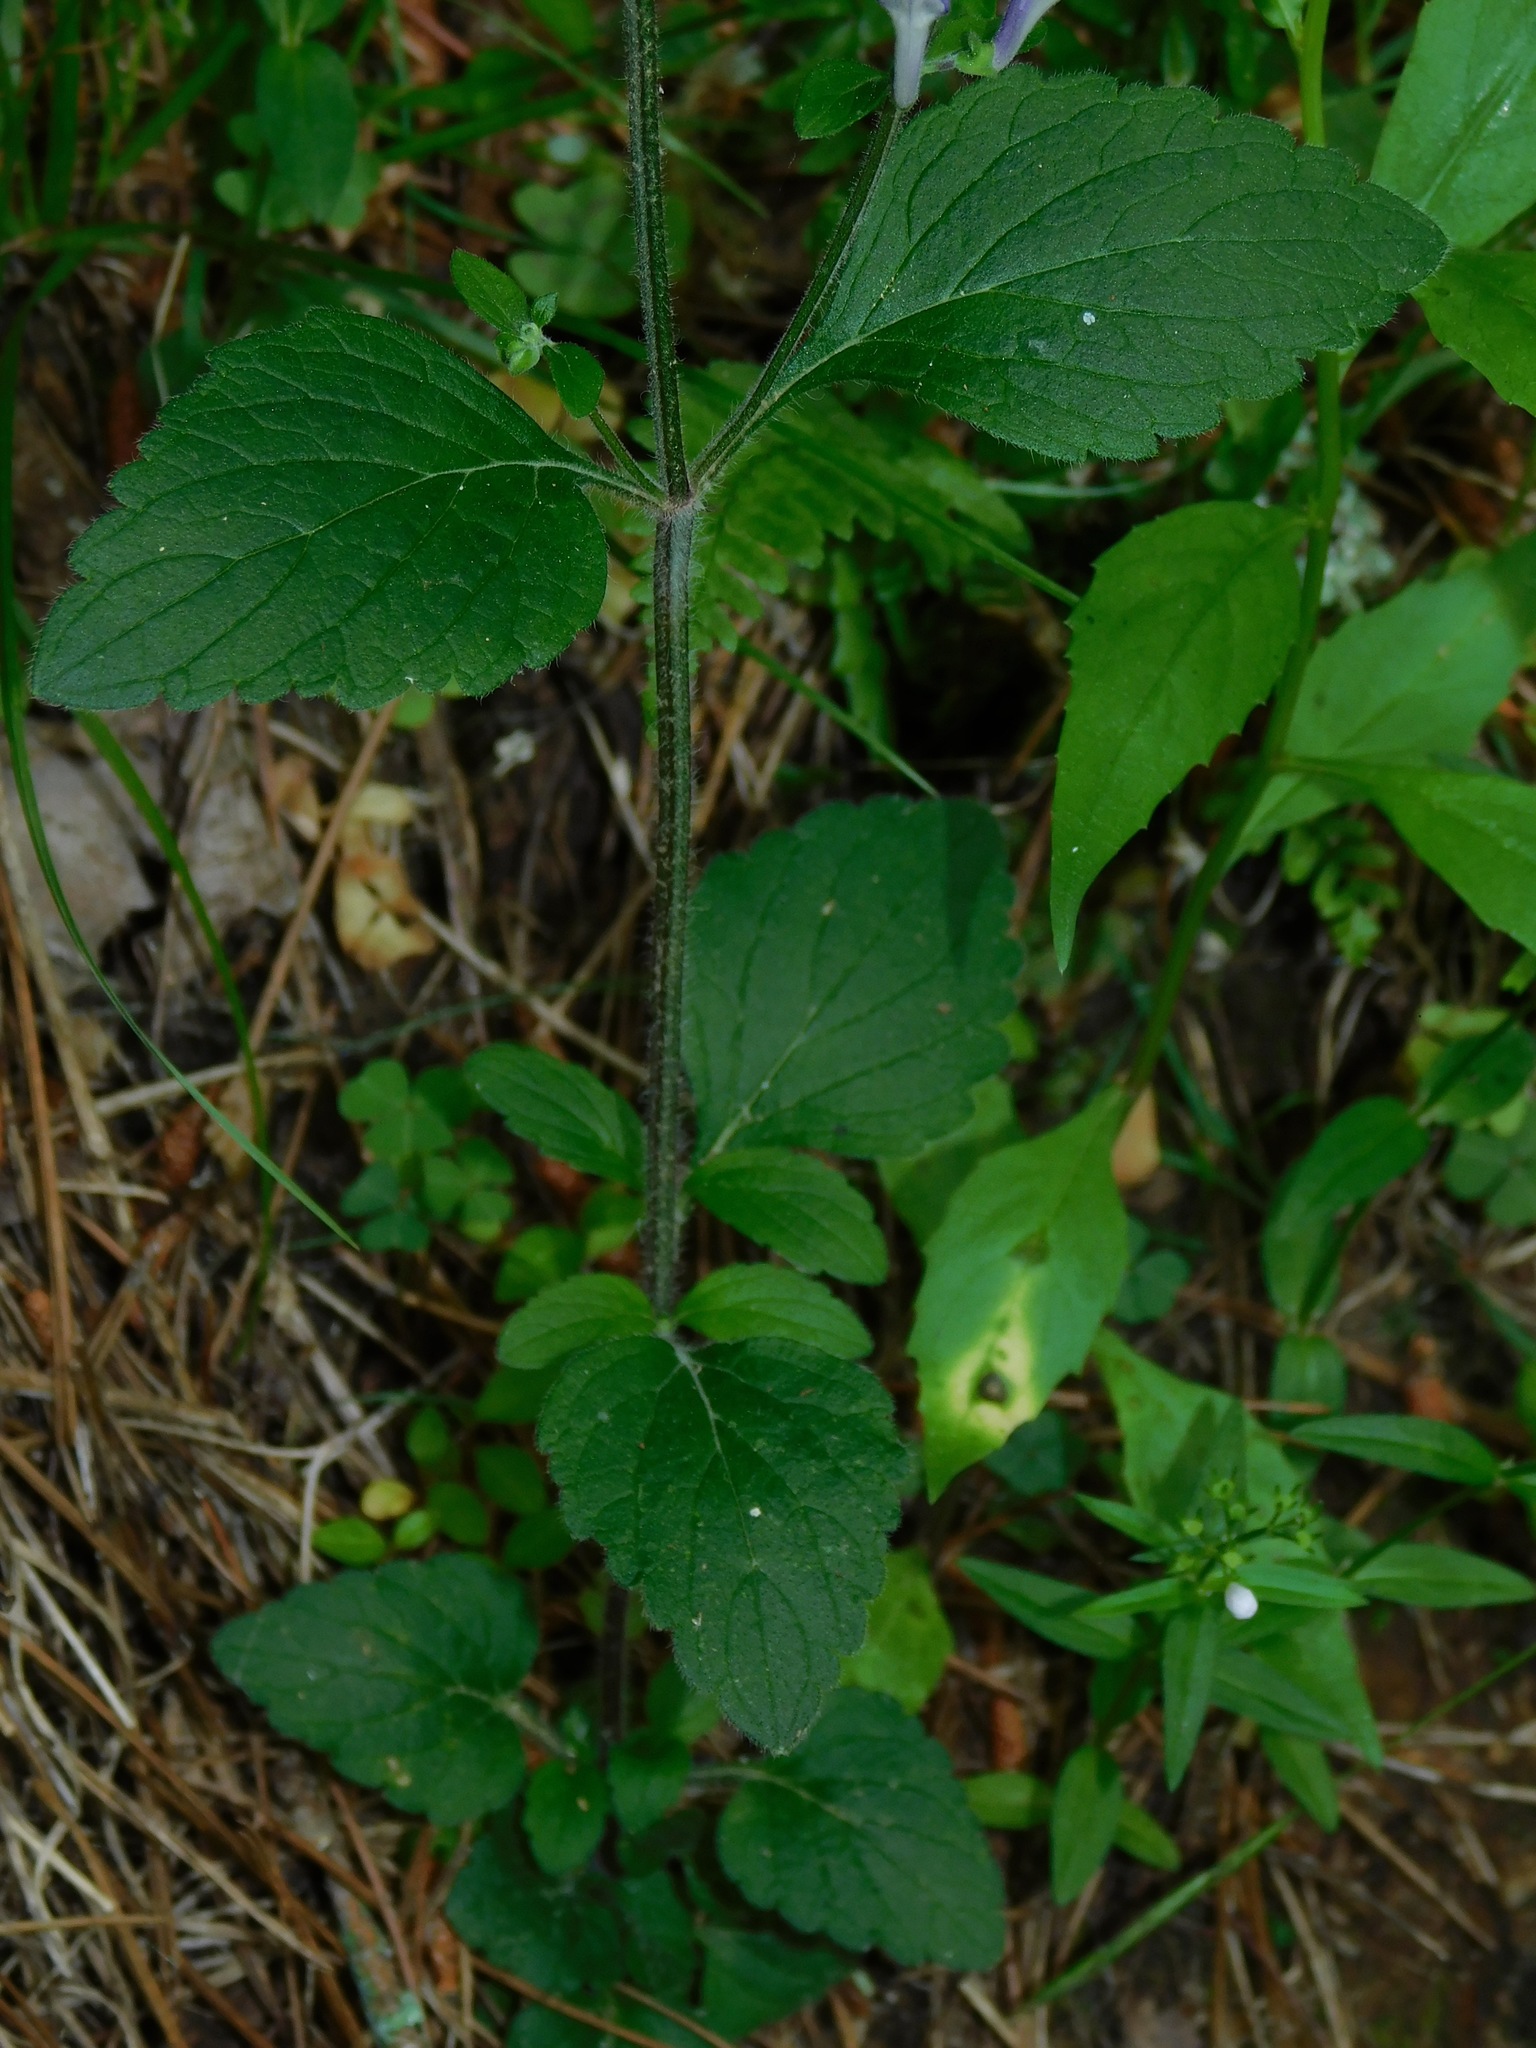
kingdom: Plantae
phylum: Tracheophyta
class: Magnoliopsida
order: Lamiales
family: Lamiaceae
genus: Scutellaria
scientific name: Scutellaria elliptica
